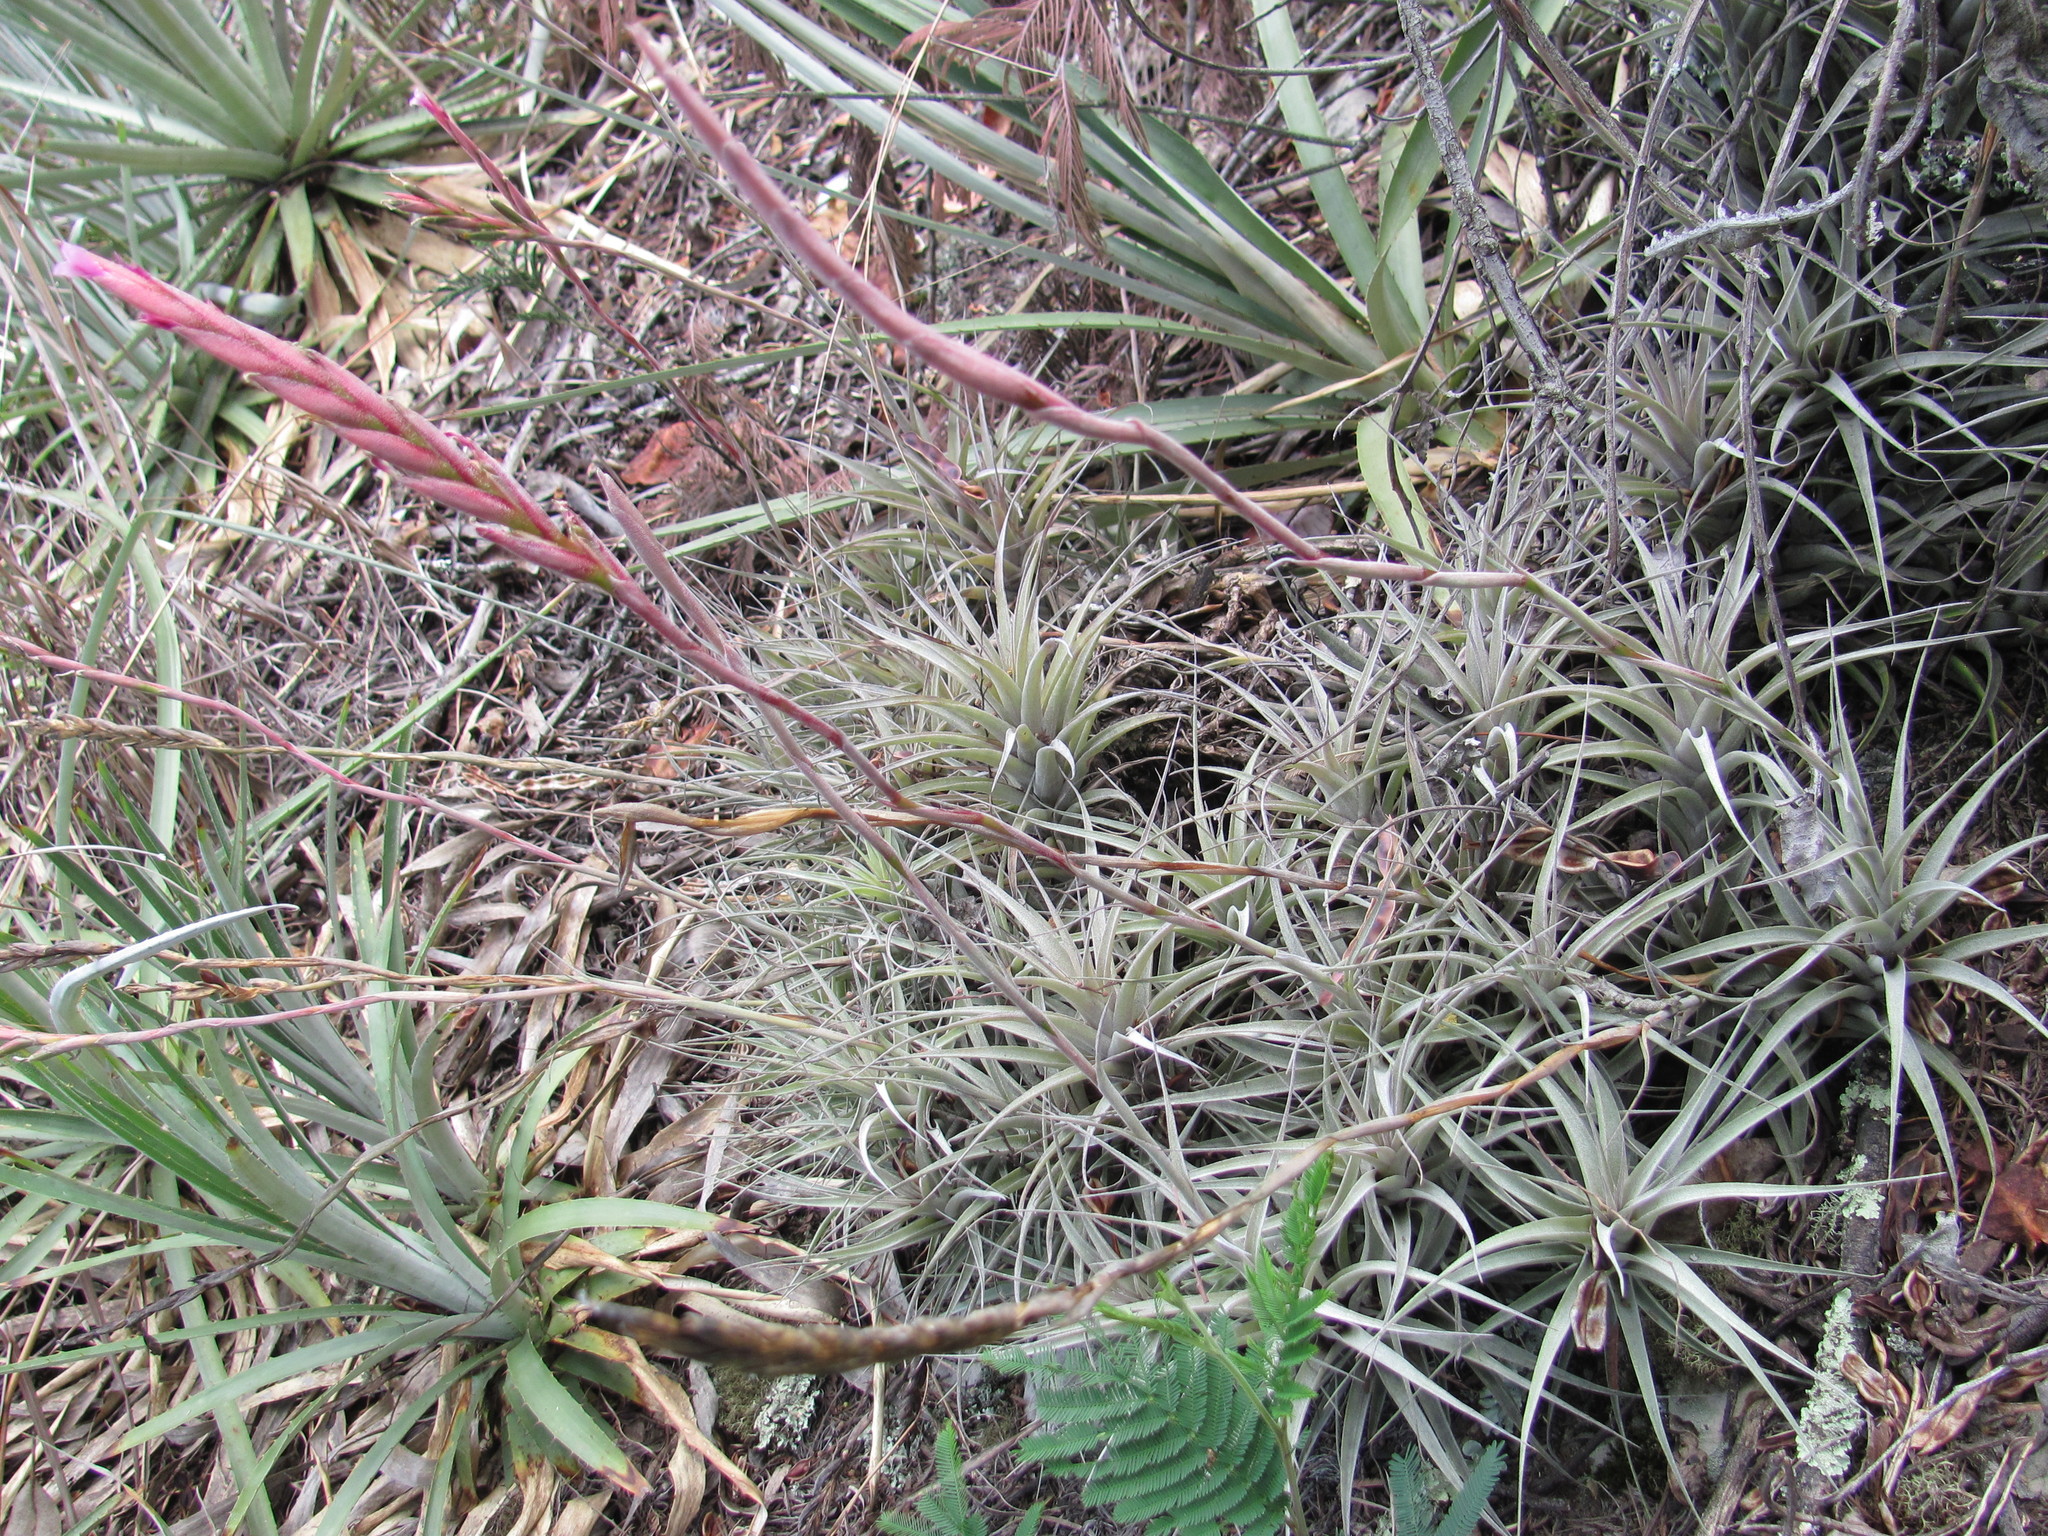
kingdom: Plantae
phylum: Tracheophyta
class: Liliopsida
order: Poales
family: Bromeliaceae
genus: Tillandsia
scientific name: Tillandsia incarnata
